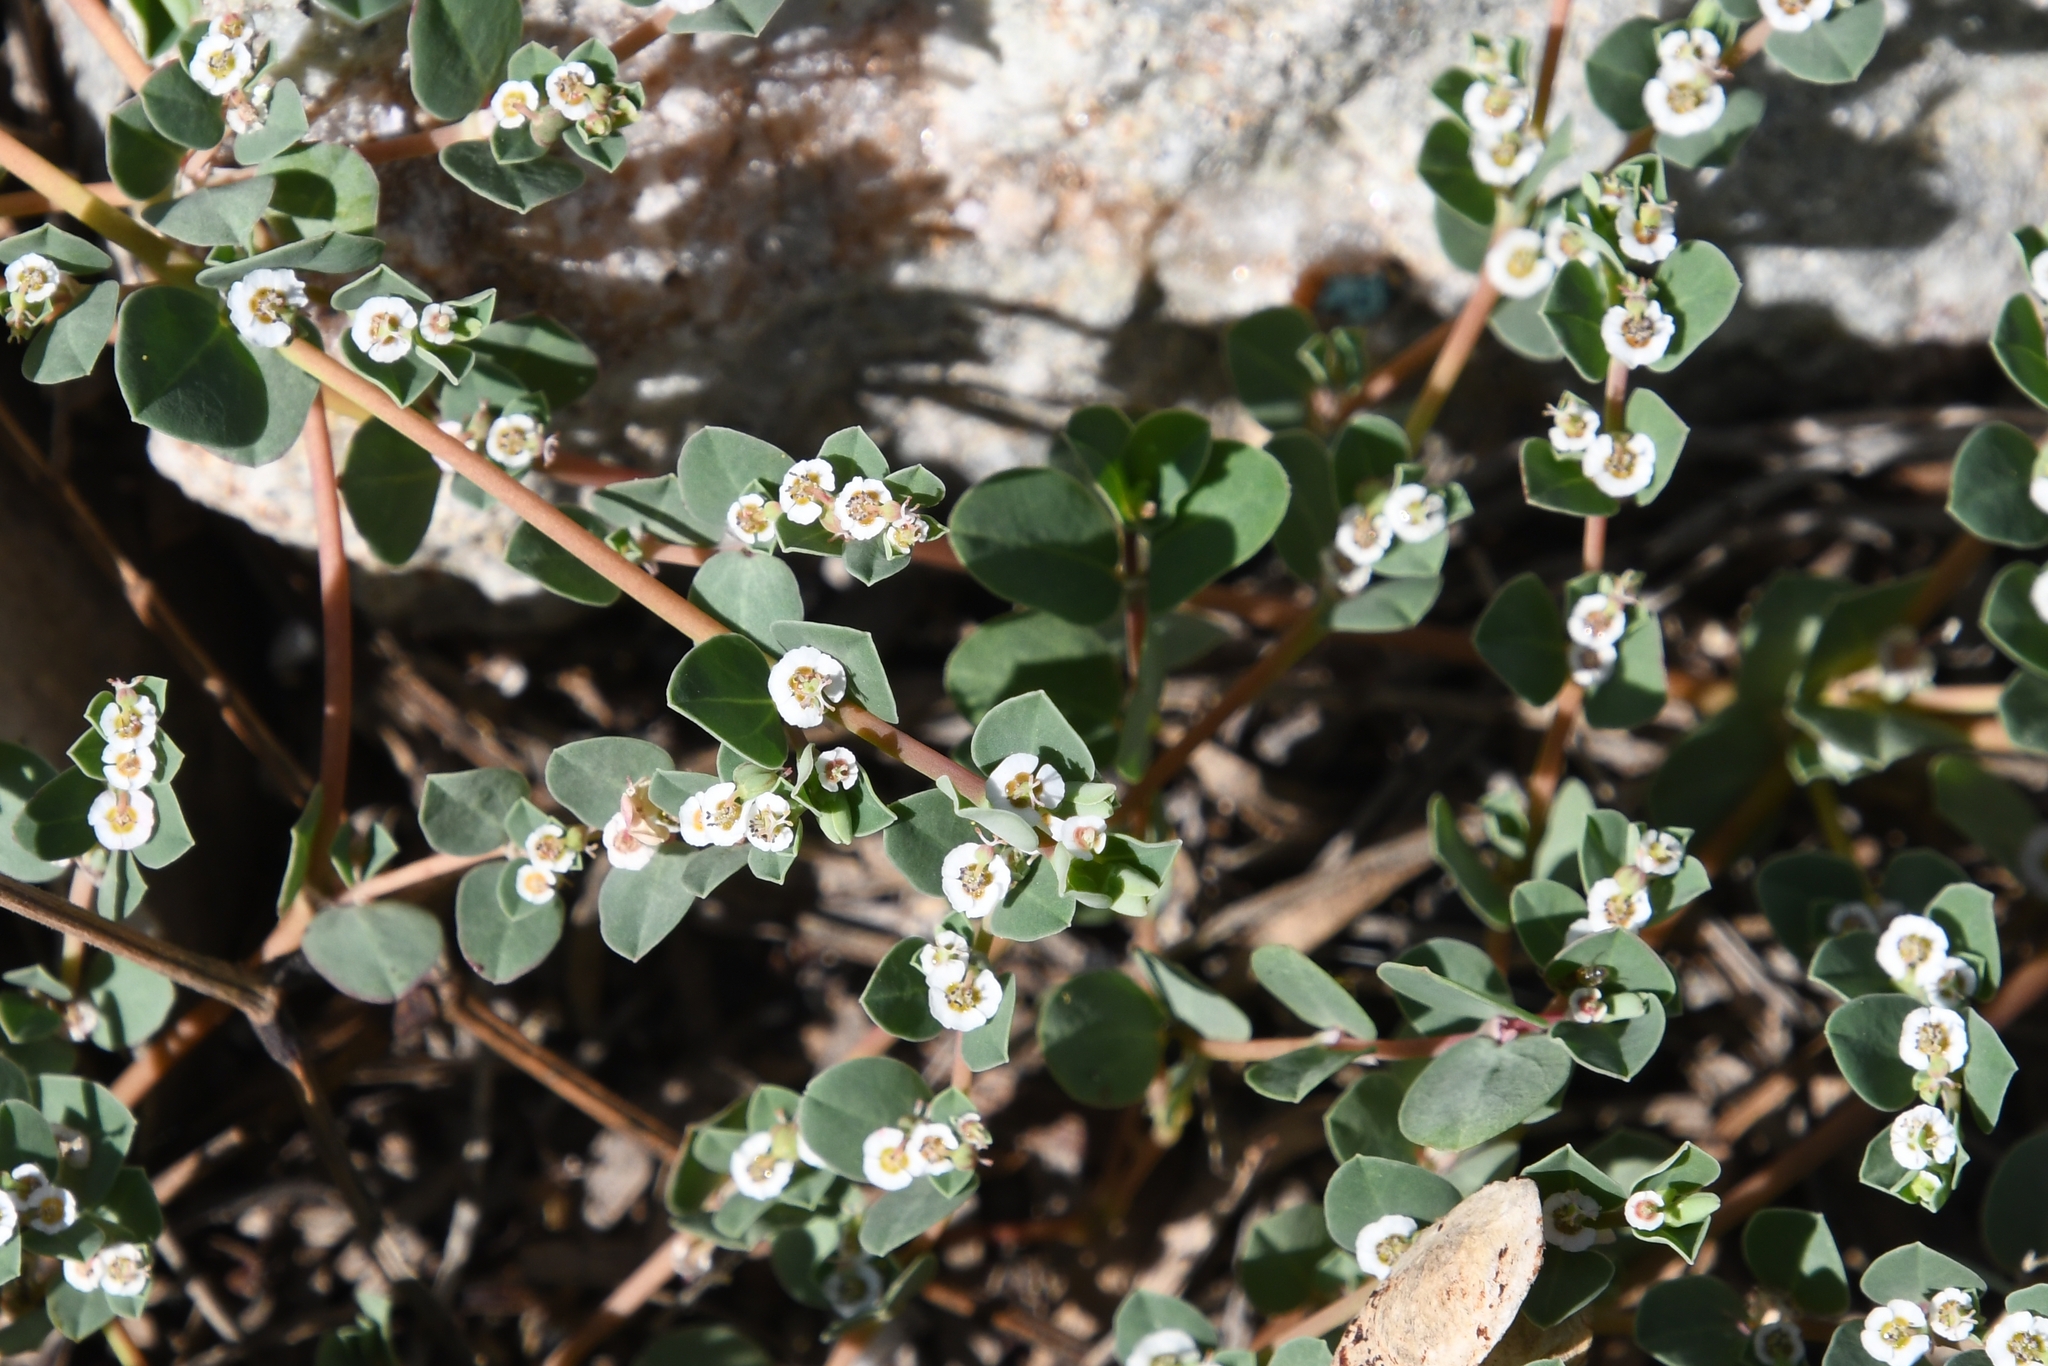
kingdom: Plantae
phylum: Tracheophyta
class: Magnoliopsida
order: Malpighiales
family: Euphorbiaceae
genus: Euphorbia
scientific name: Euphorbia albomarginata
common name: Whitemargin sandmat
